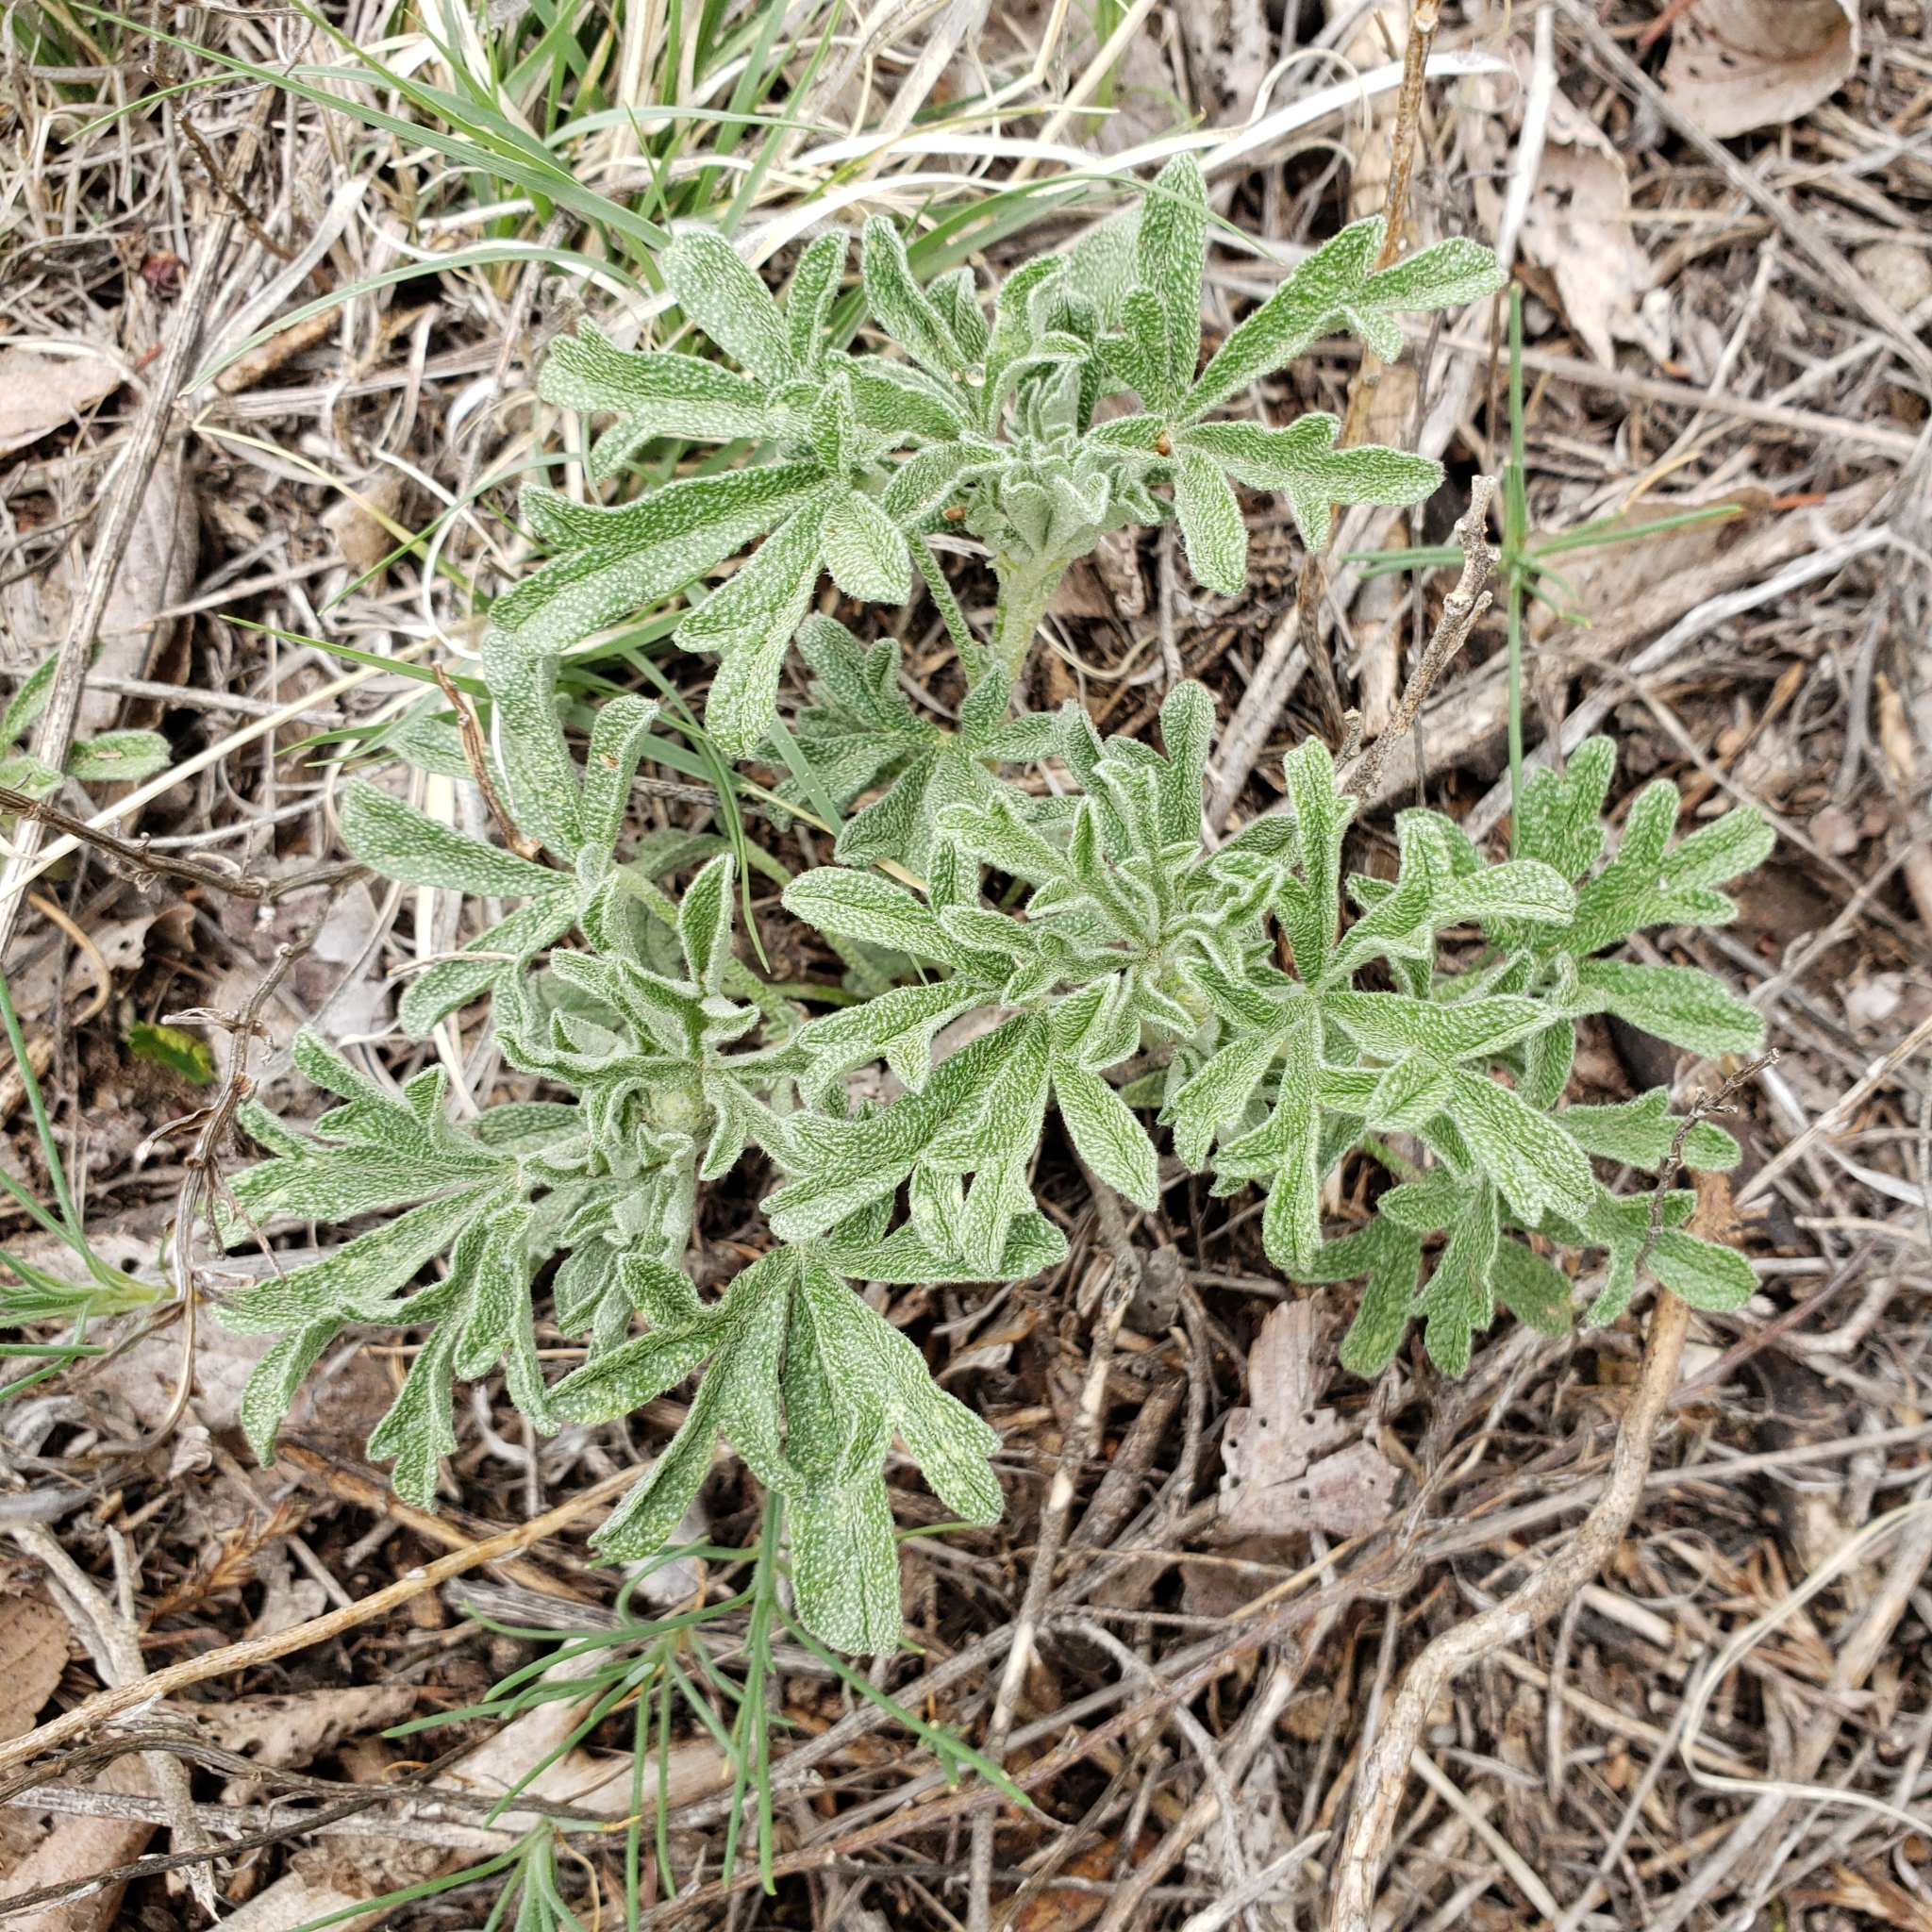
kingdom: Plantae
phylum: Tracheophyta
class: Magnoliopsida
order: Malvales
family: Malvaceae
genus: Sphaeralcea
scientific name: Sphaeralcea coccinea
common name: Moss-rose
